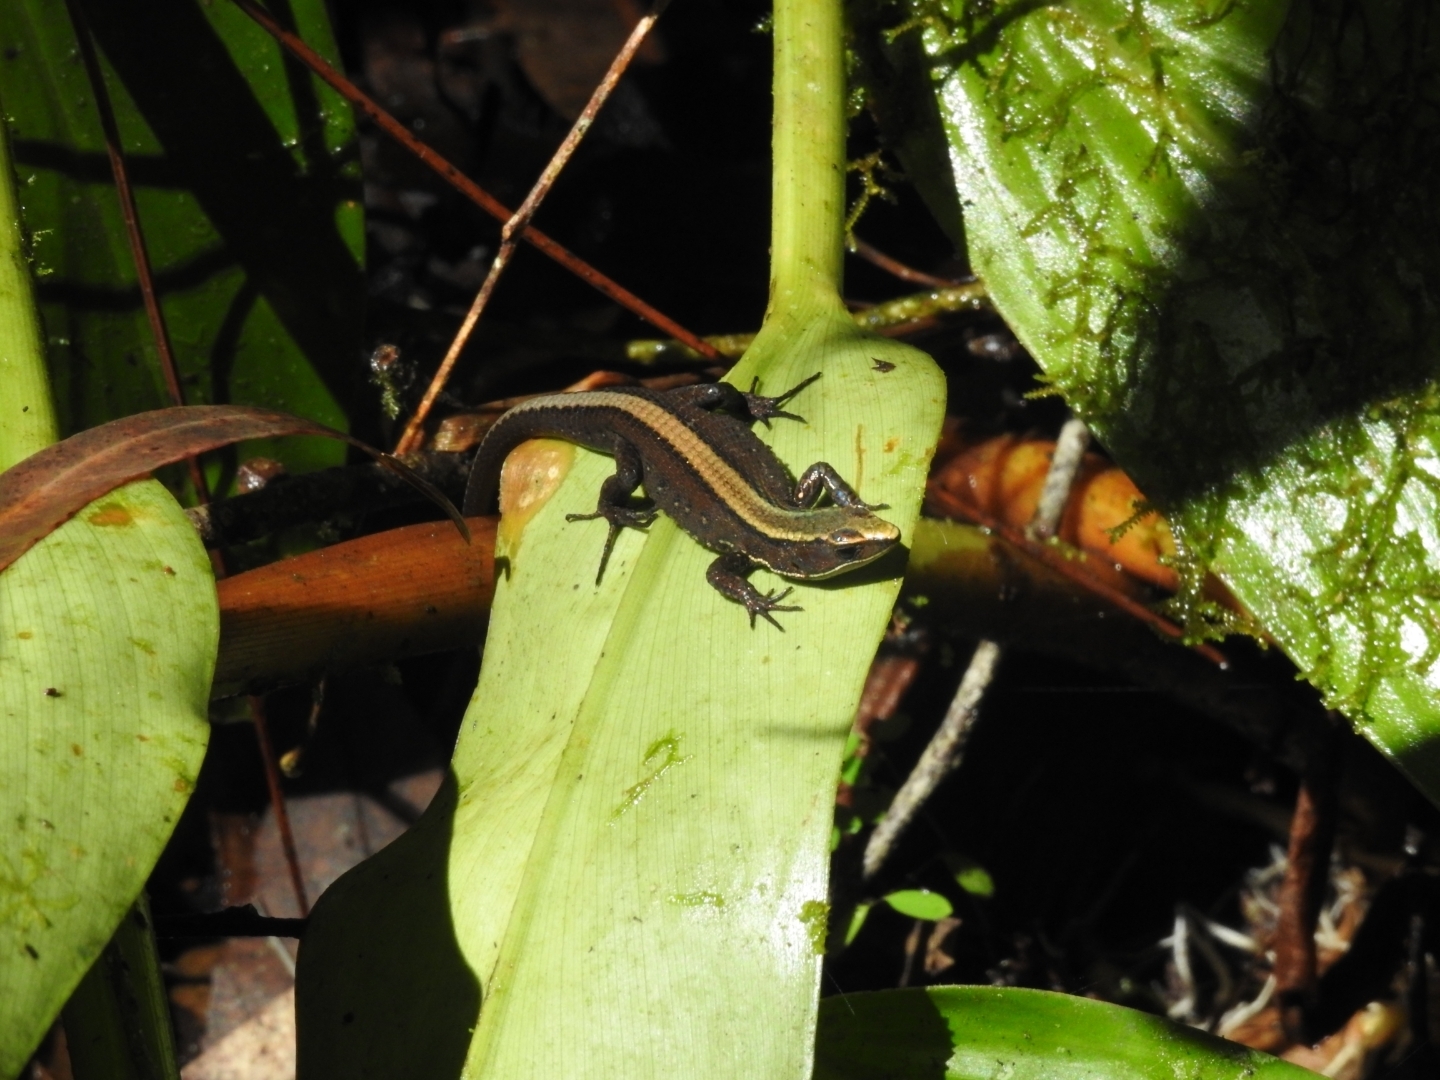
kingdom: Animalia
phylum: Chordata
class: Squamata
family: Gymnophthalmidae
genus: Pholidobolus
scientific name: Pholidobolus vertebralis
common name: Brown prionodactylus
